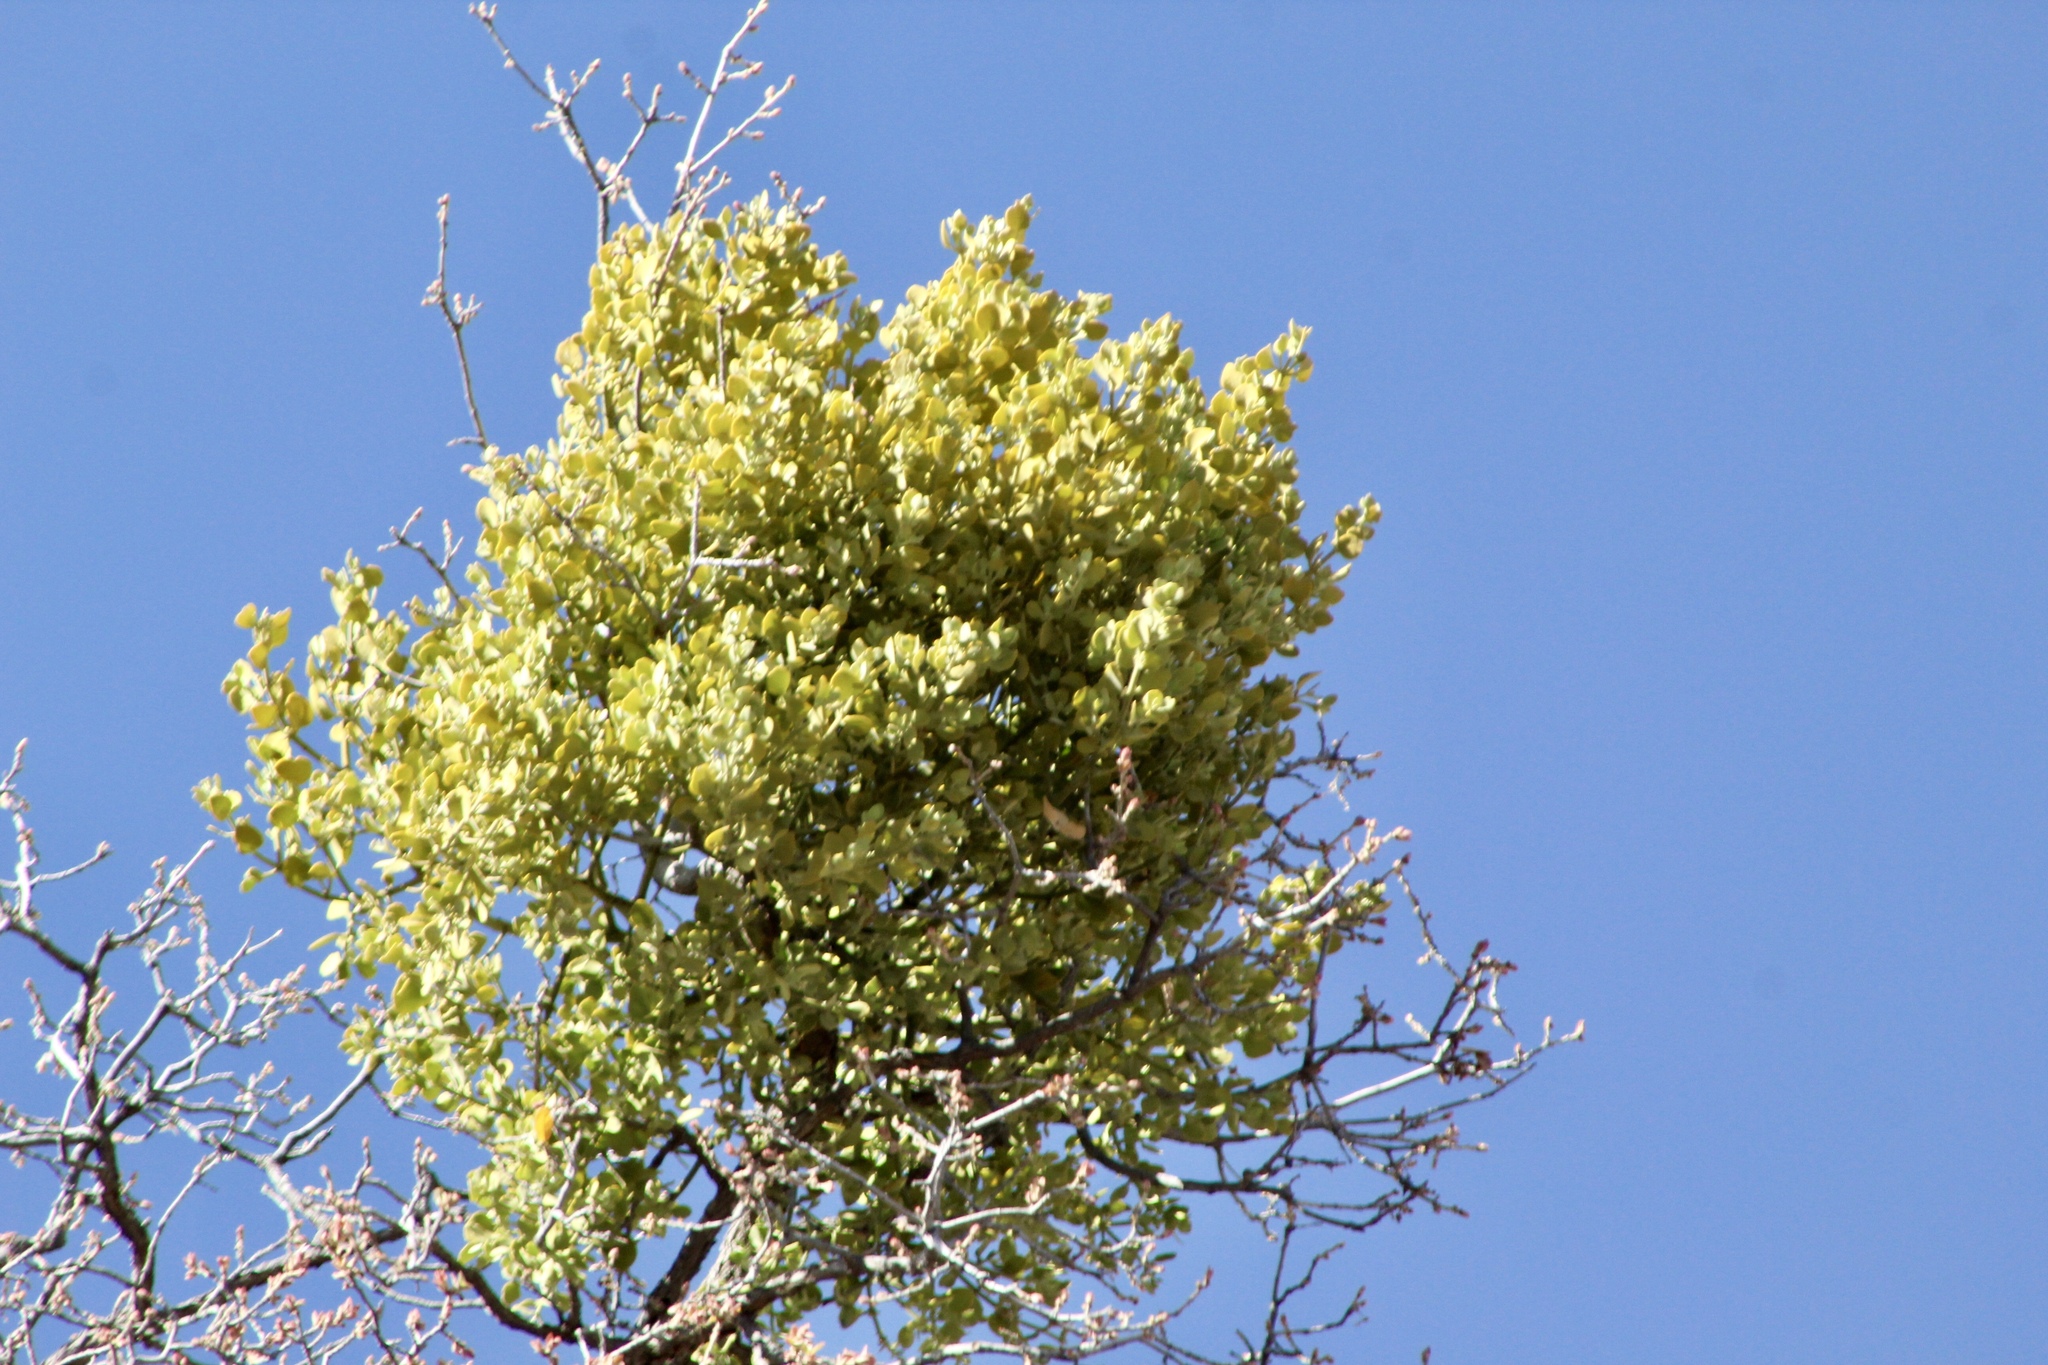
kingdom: Plantae
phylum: Tracheophyta
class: Magnoliopsida
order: Santalales
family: Viscaceae
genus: Phoradendron
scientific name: Phoradendron coryae
